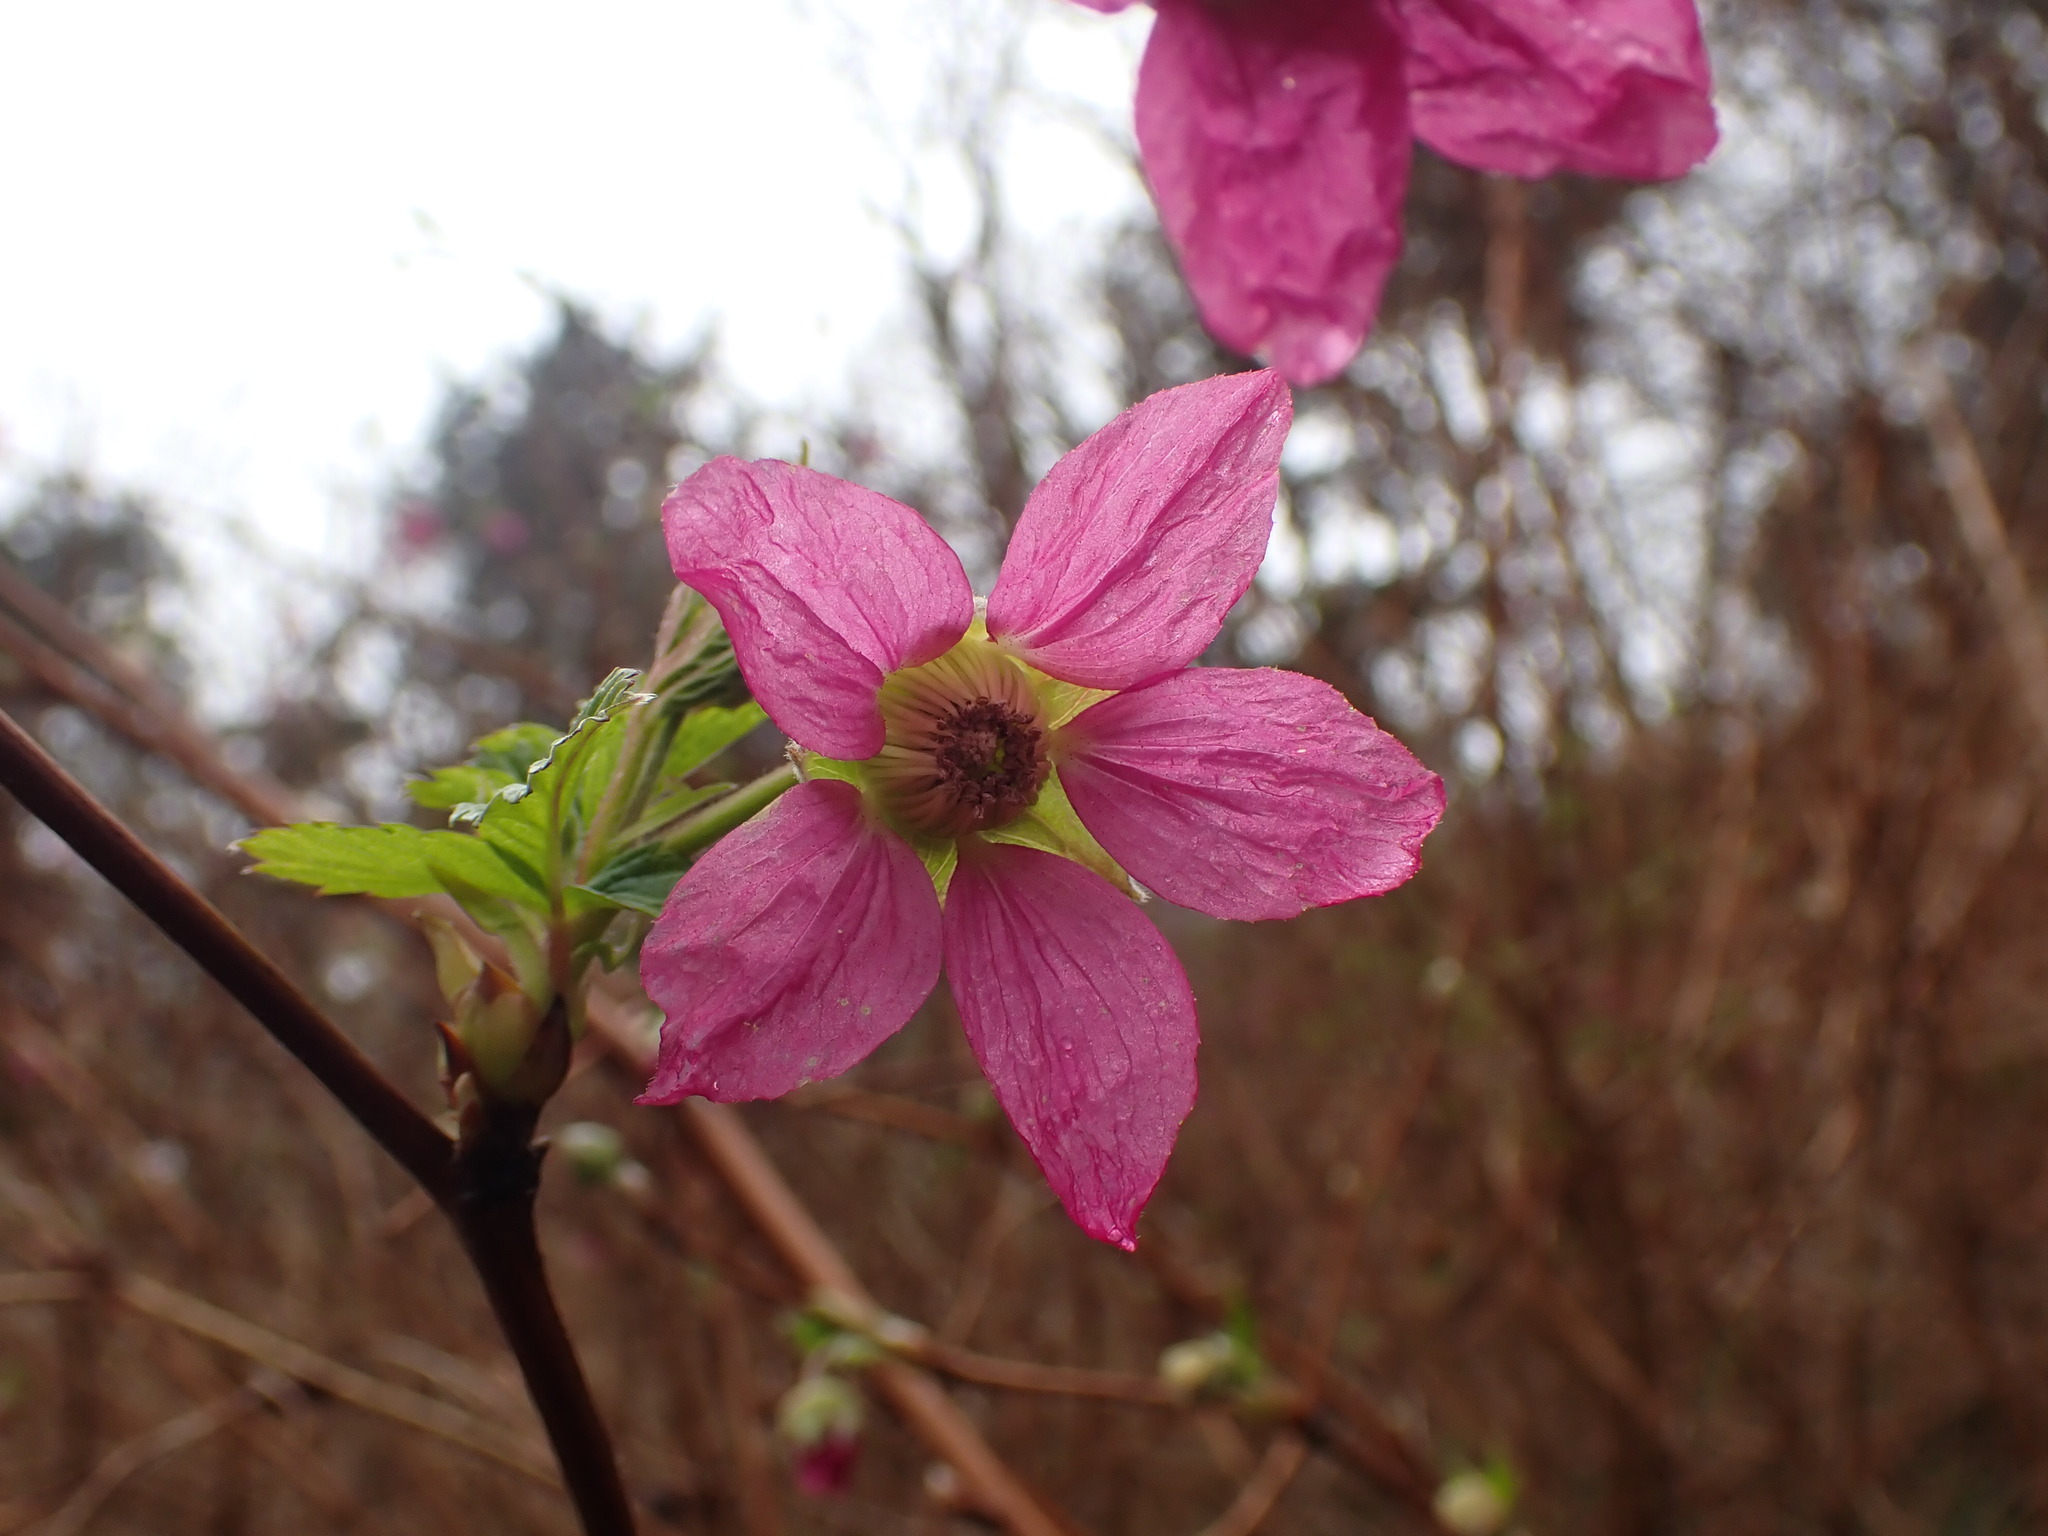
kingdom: Plantae
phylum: Tracheophyta
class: Magnoliopsida
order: Rosales
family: Rosaceae
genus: Rubus
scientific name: Rubus spectabilis
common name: Salmonberry
